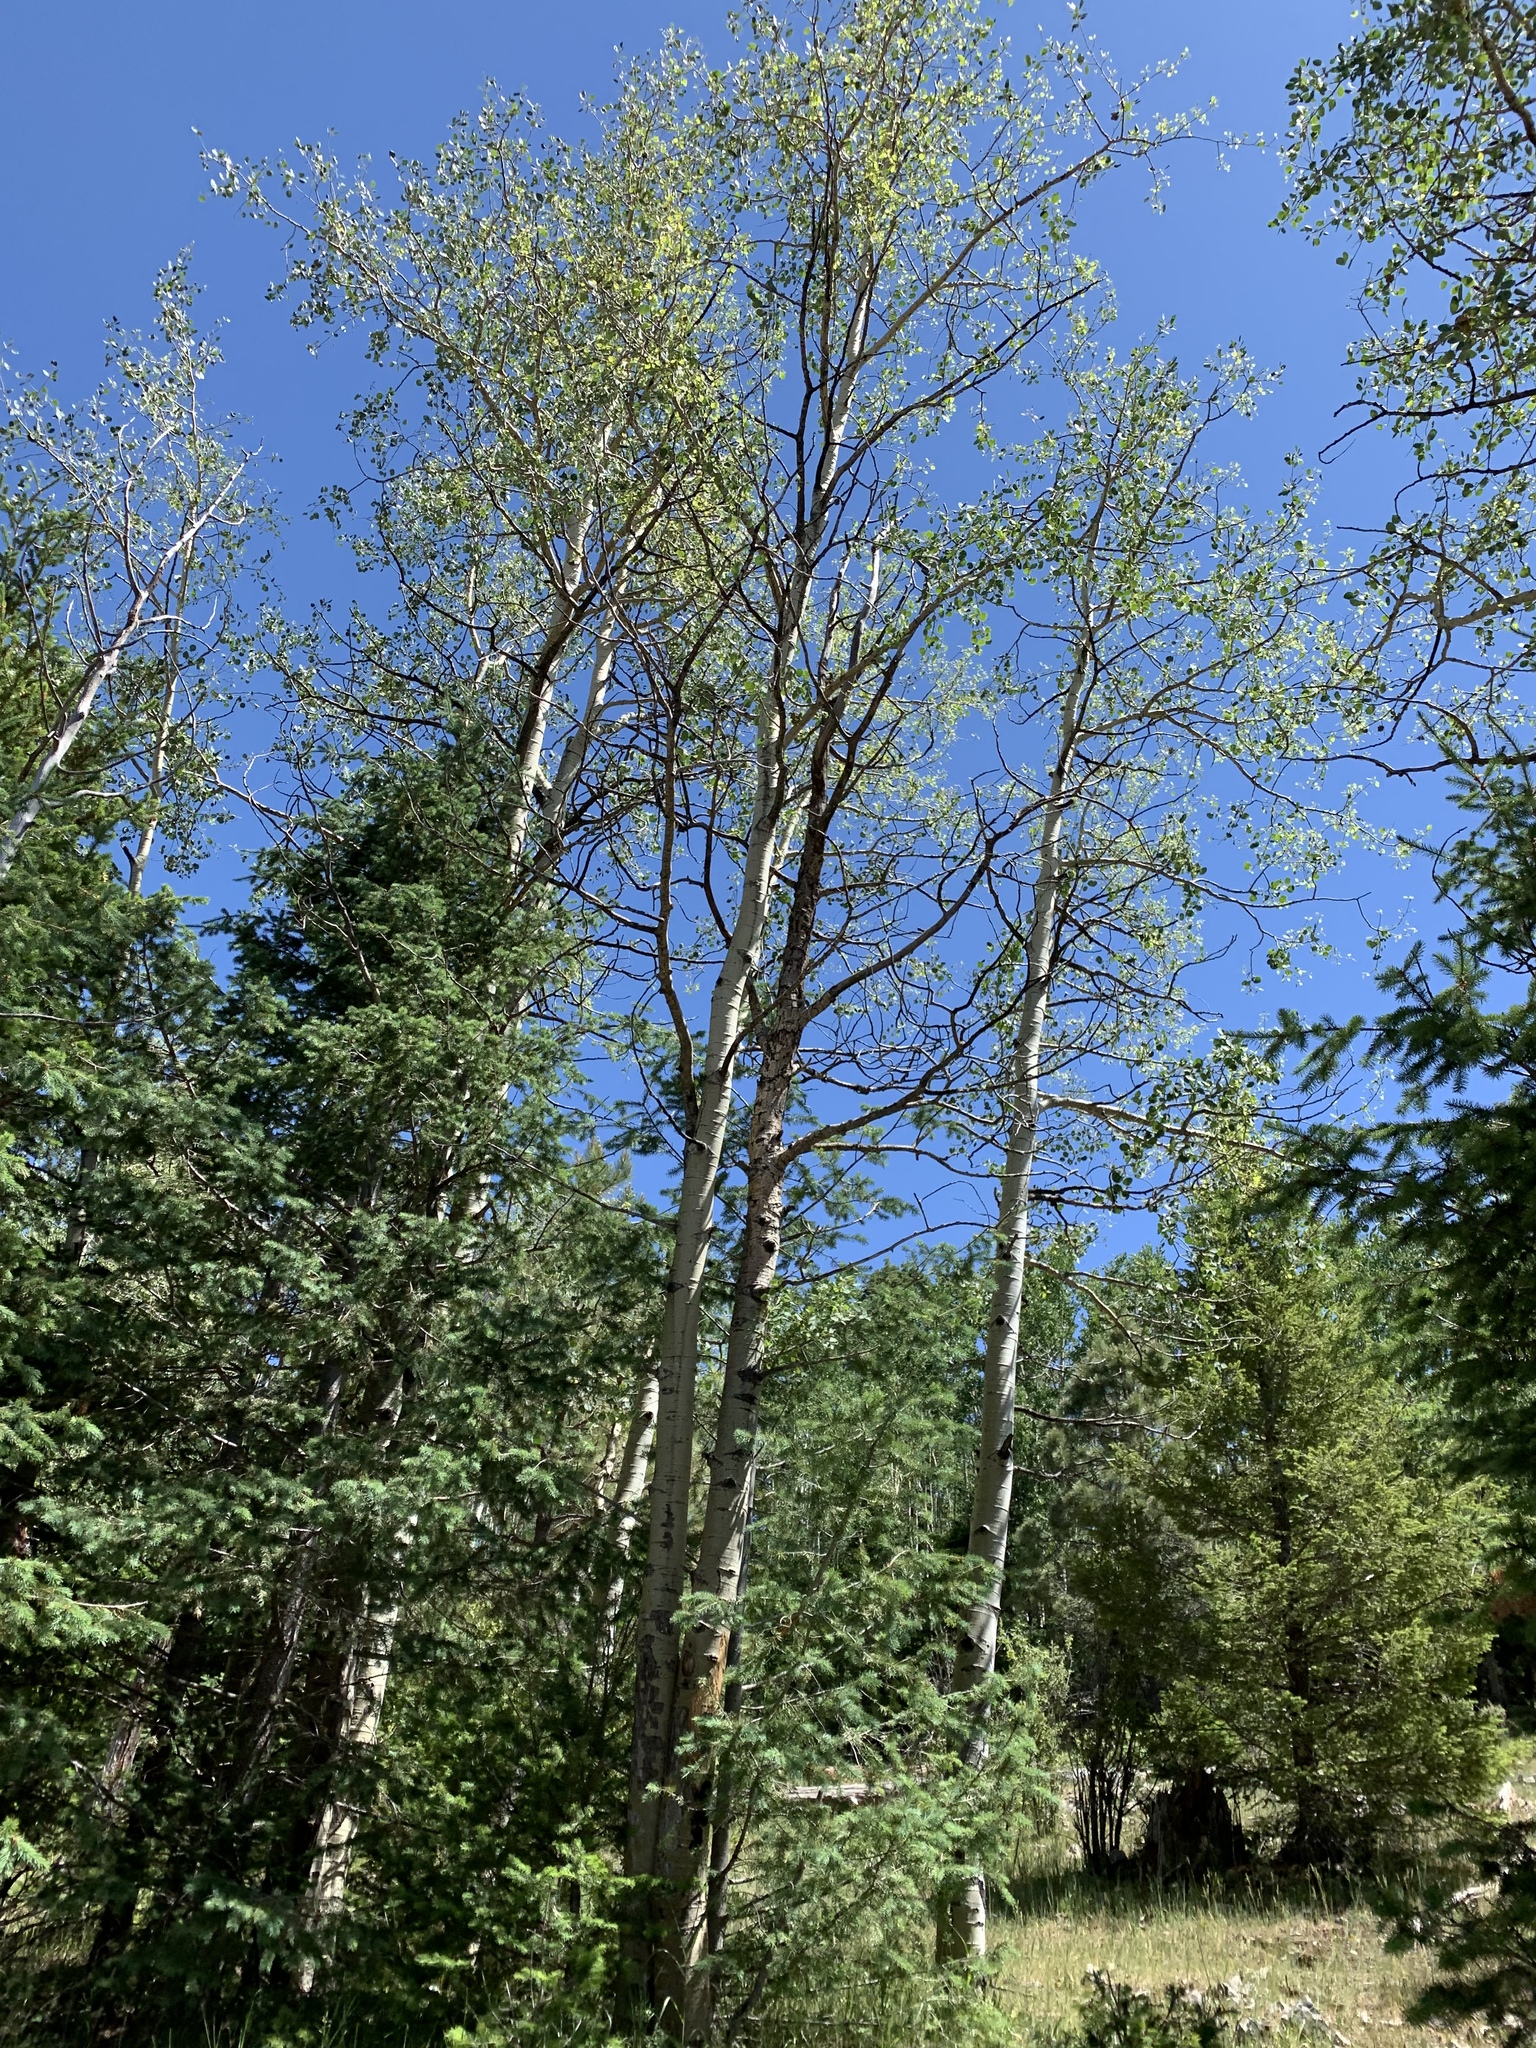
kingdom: Plantae
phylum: Tracheophyta
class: Magnoliopsida
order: Malpighiales
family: Salicaceae
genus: Populus
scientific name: Populus tremuloides
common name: Quaking aspen
